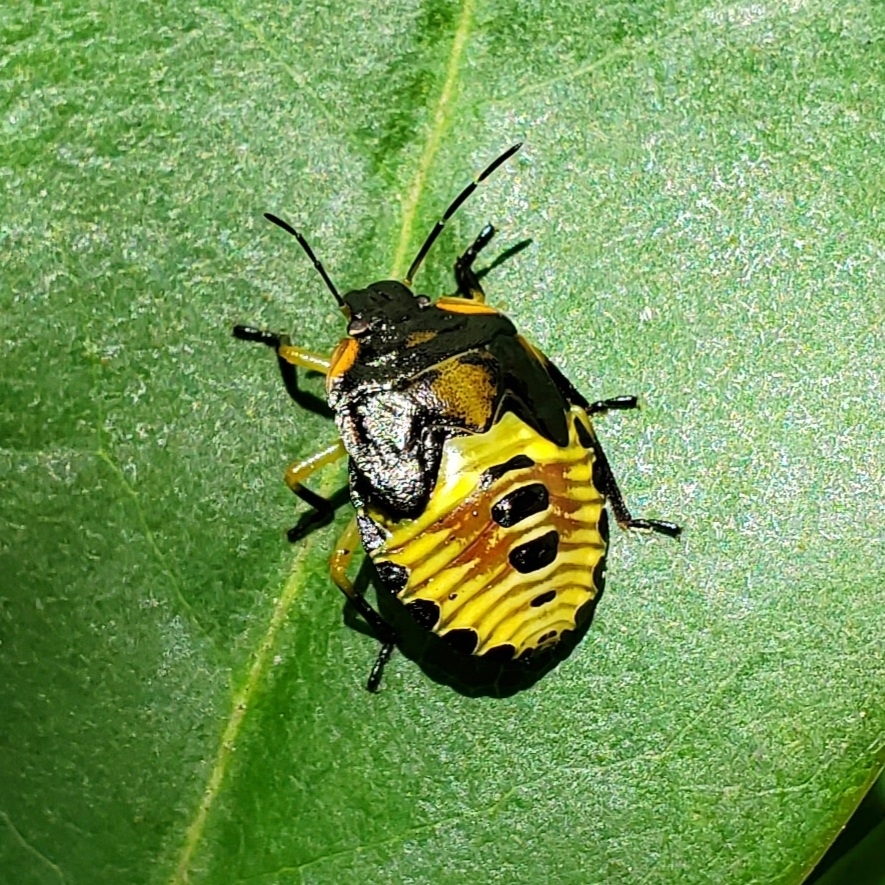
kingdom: Animalia
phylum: Arthropoda
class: Insecta
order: Hemiptera
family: Pentatomidae
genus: Chinavia
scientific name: Chinavia hilaris
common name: Green stink bug
